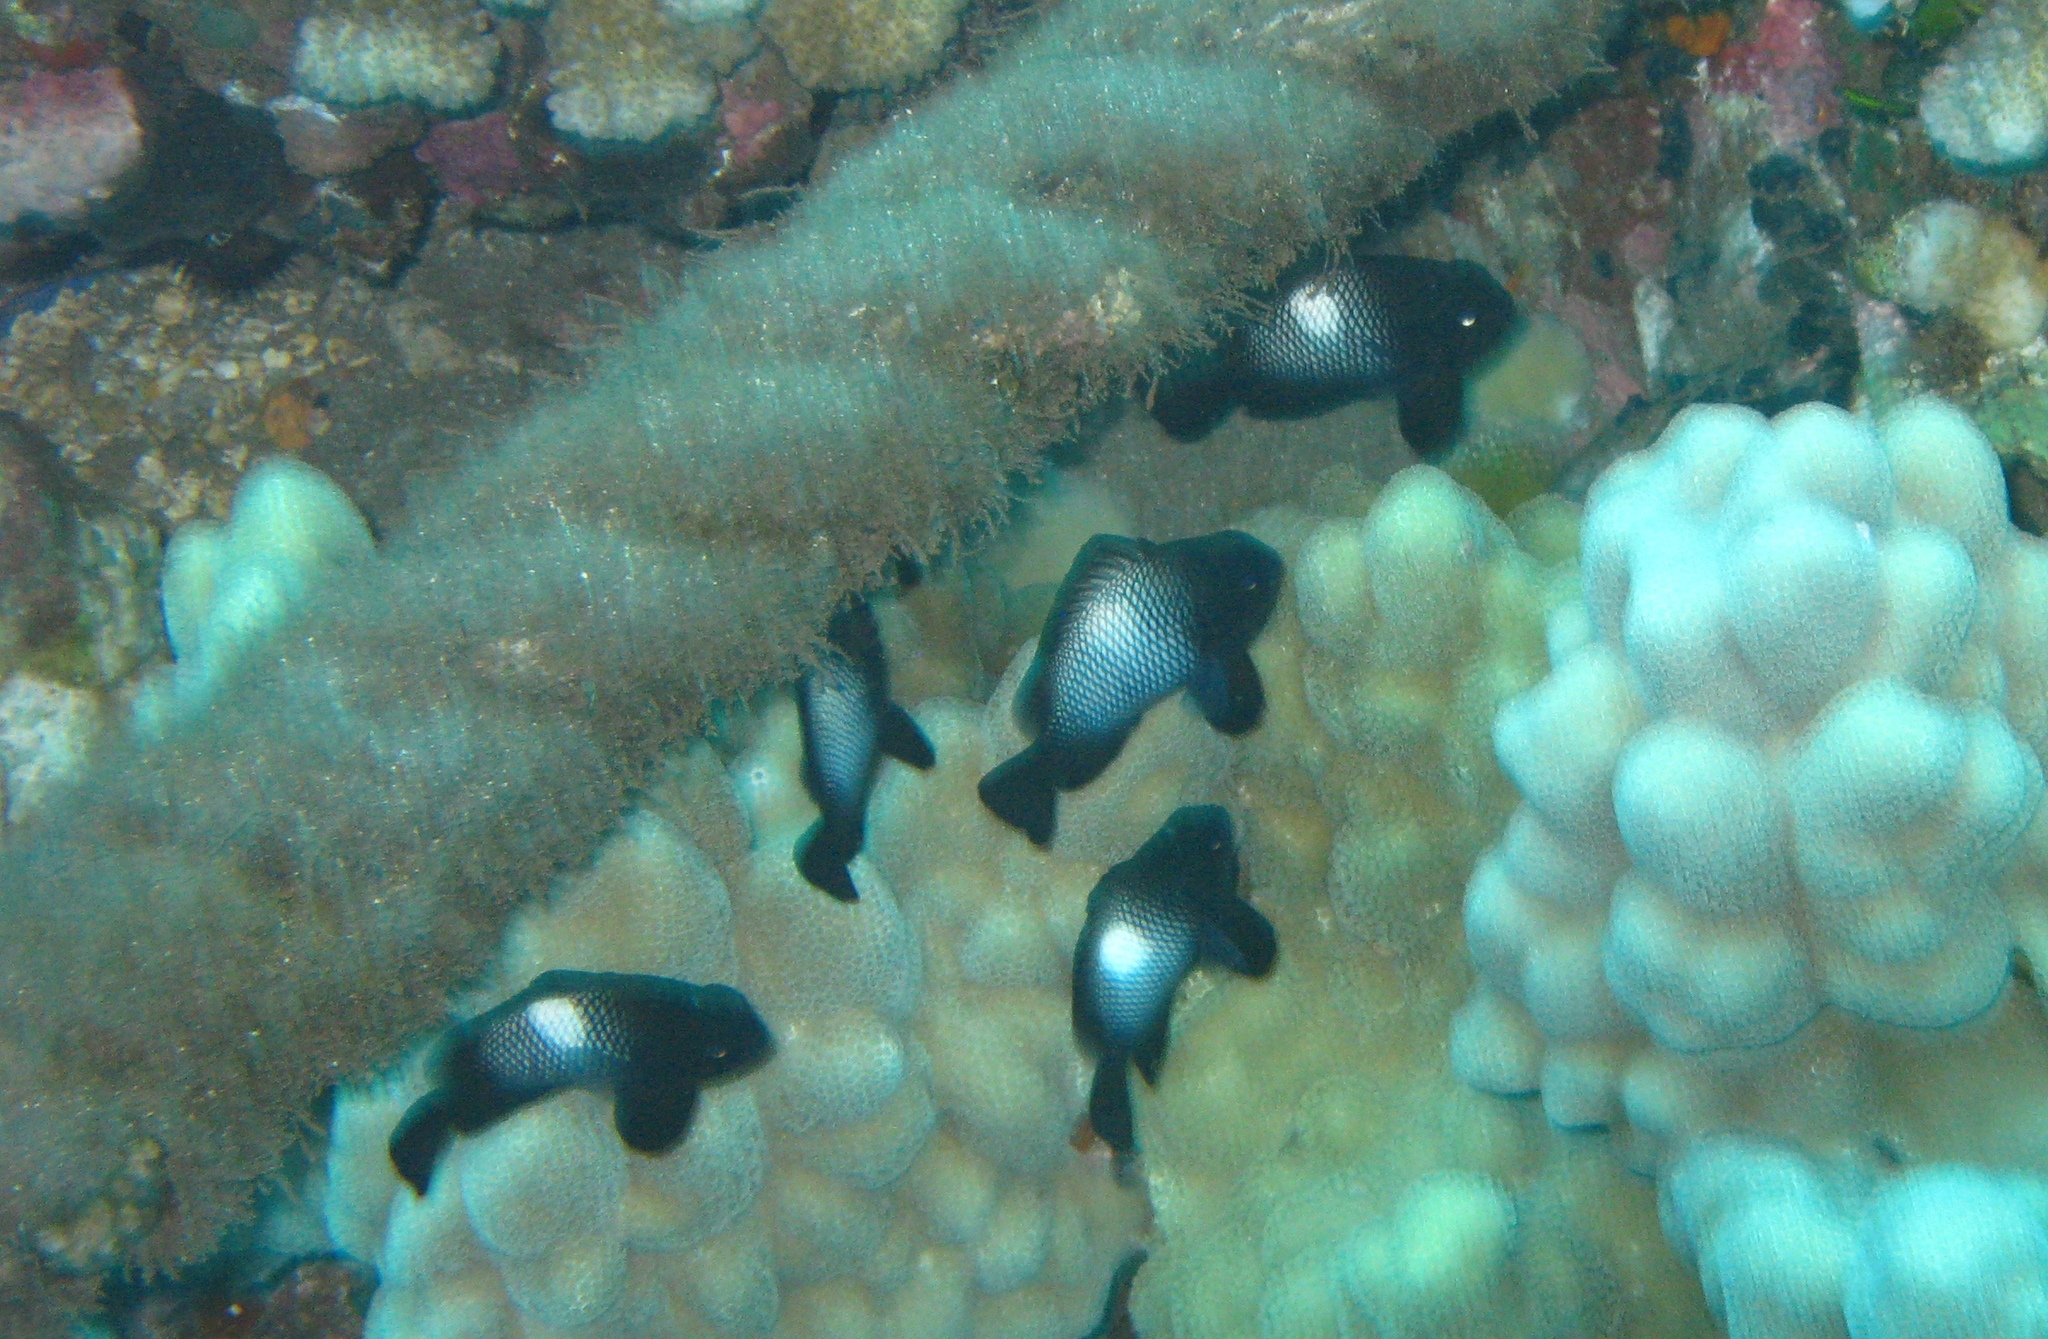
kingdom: Animalia
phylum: Chordata
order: Perciformes
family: Pomacentridae
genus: Dascyllus
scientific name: Dascyllus albisella
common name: Hawaiian dascyllus
